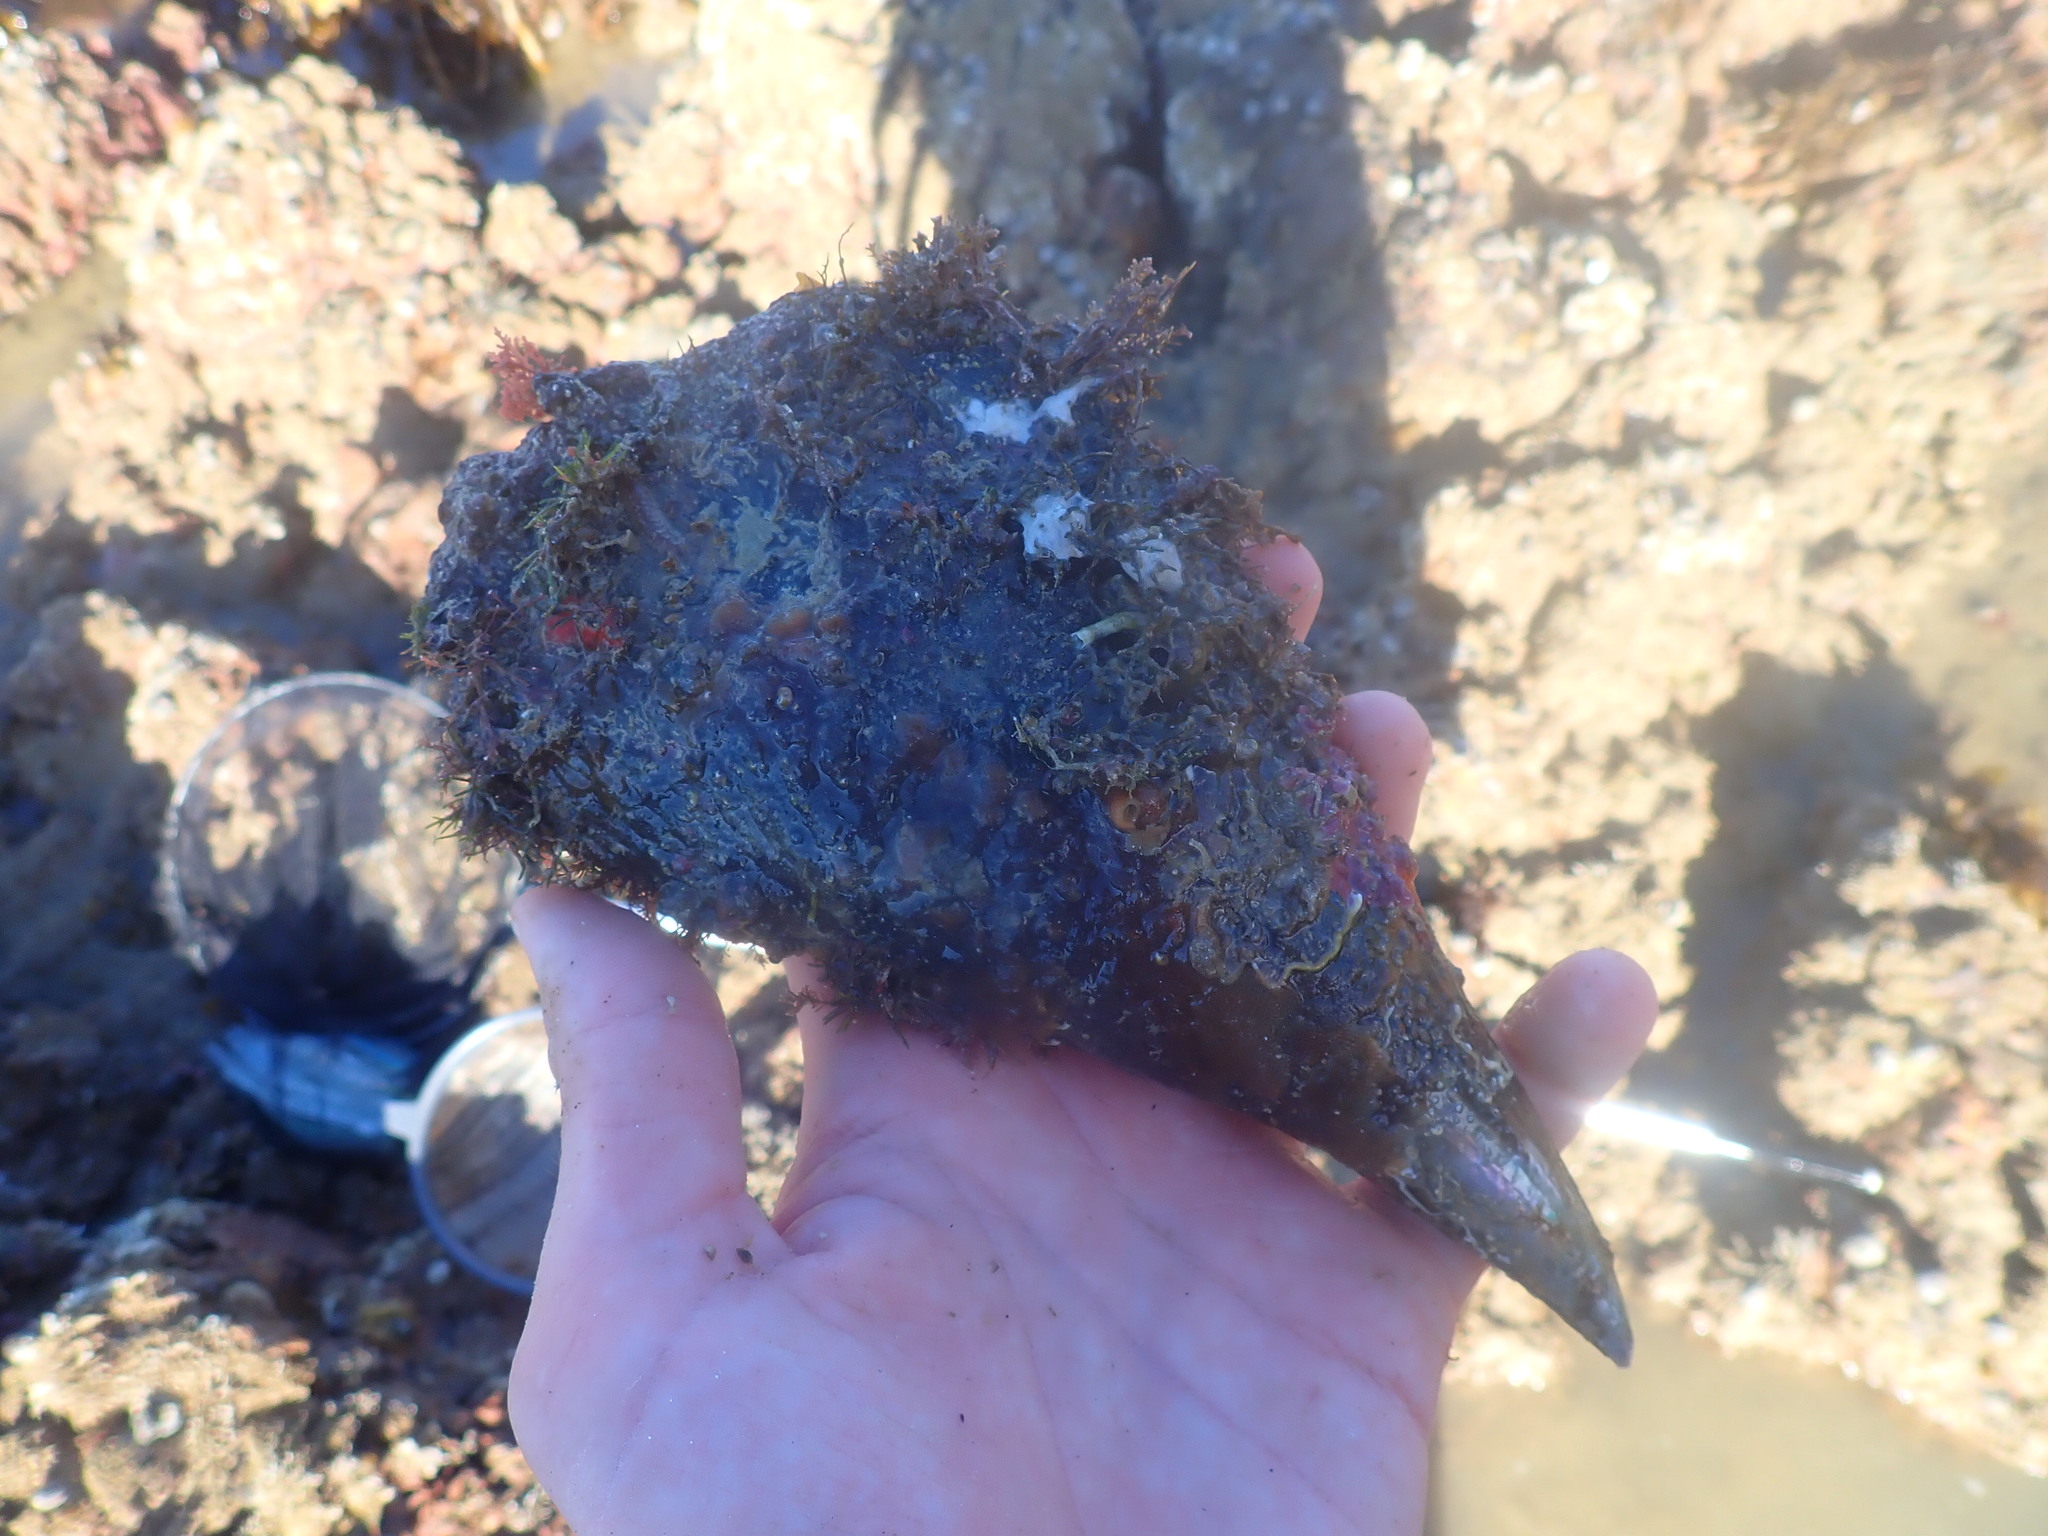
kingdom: Animalia
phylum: Mollusca
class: Bivalvia
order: Ostreida
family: Pinnidae
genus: Atrina
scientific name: Atrina zelandica
